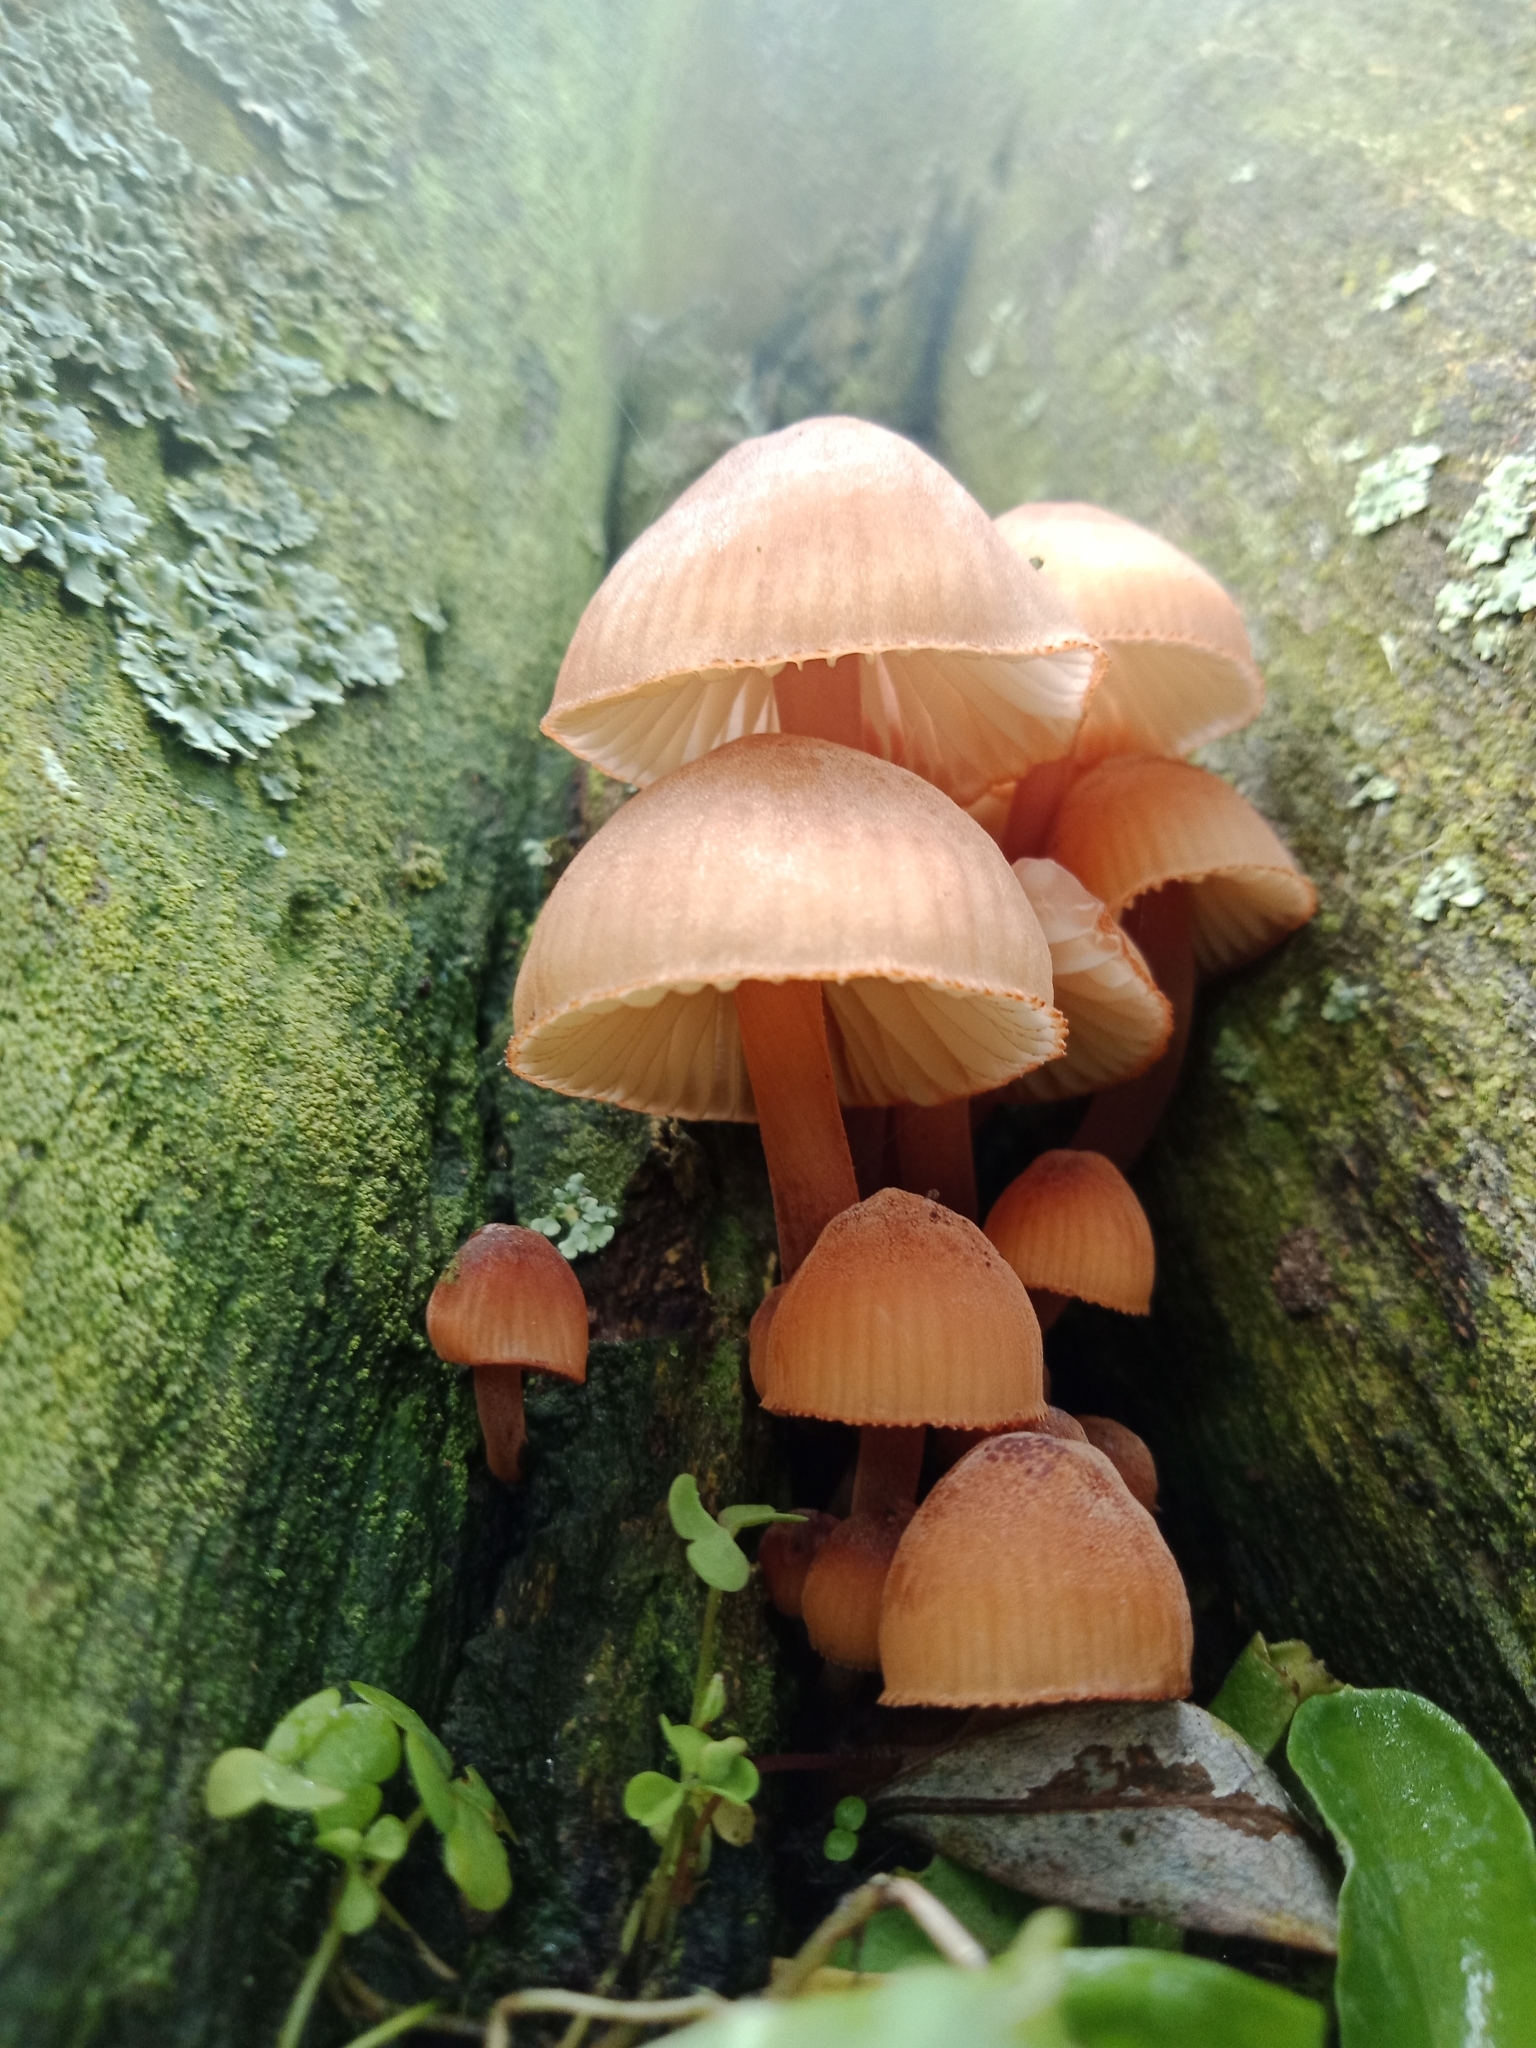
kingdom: Fungi
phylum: Basidiomycota
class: Agaricomycetes
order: Agaricales
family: Mycenaceae
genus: Mycena
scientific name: Mycena parsonsii
